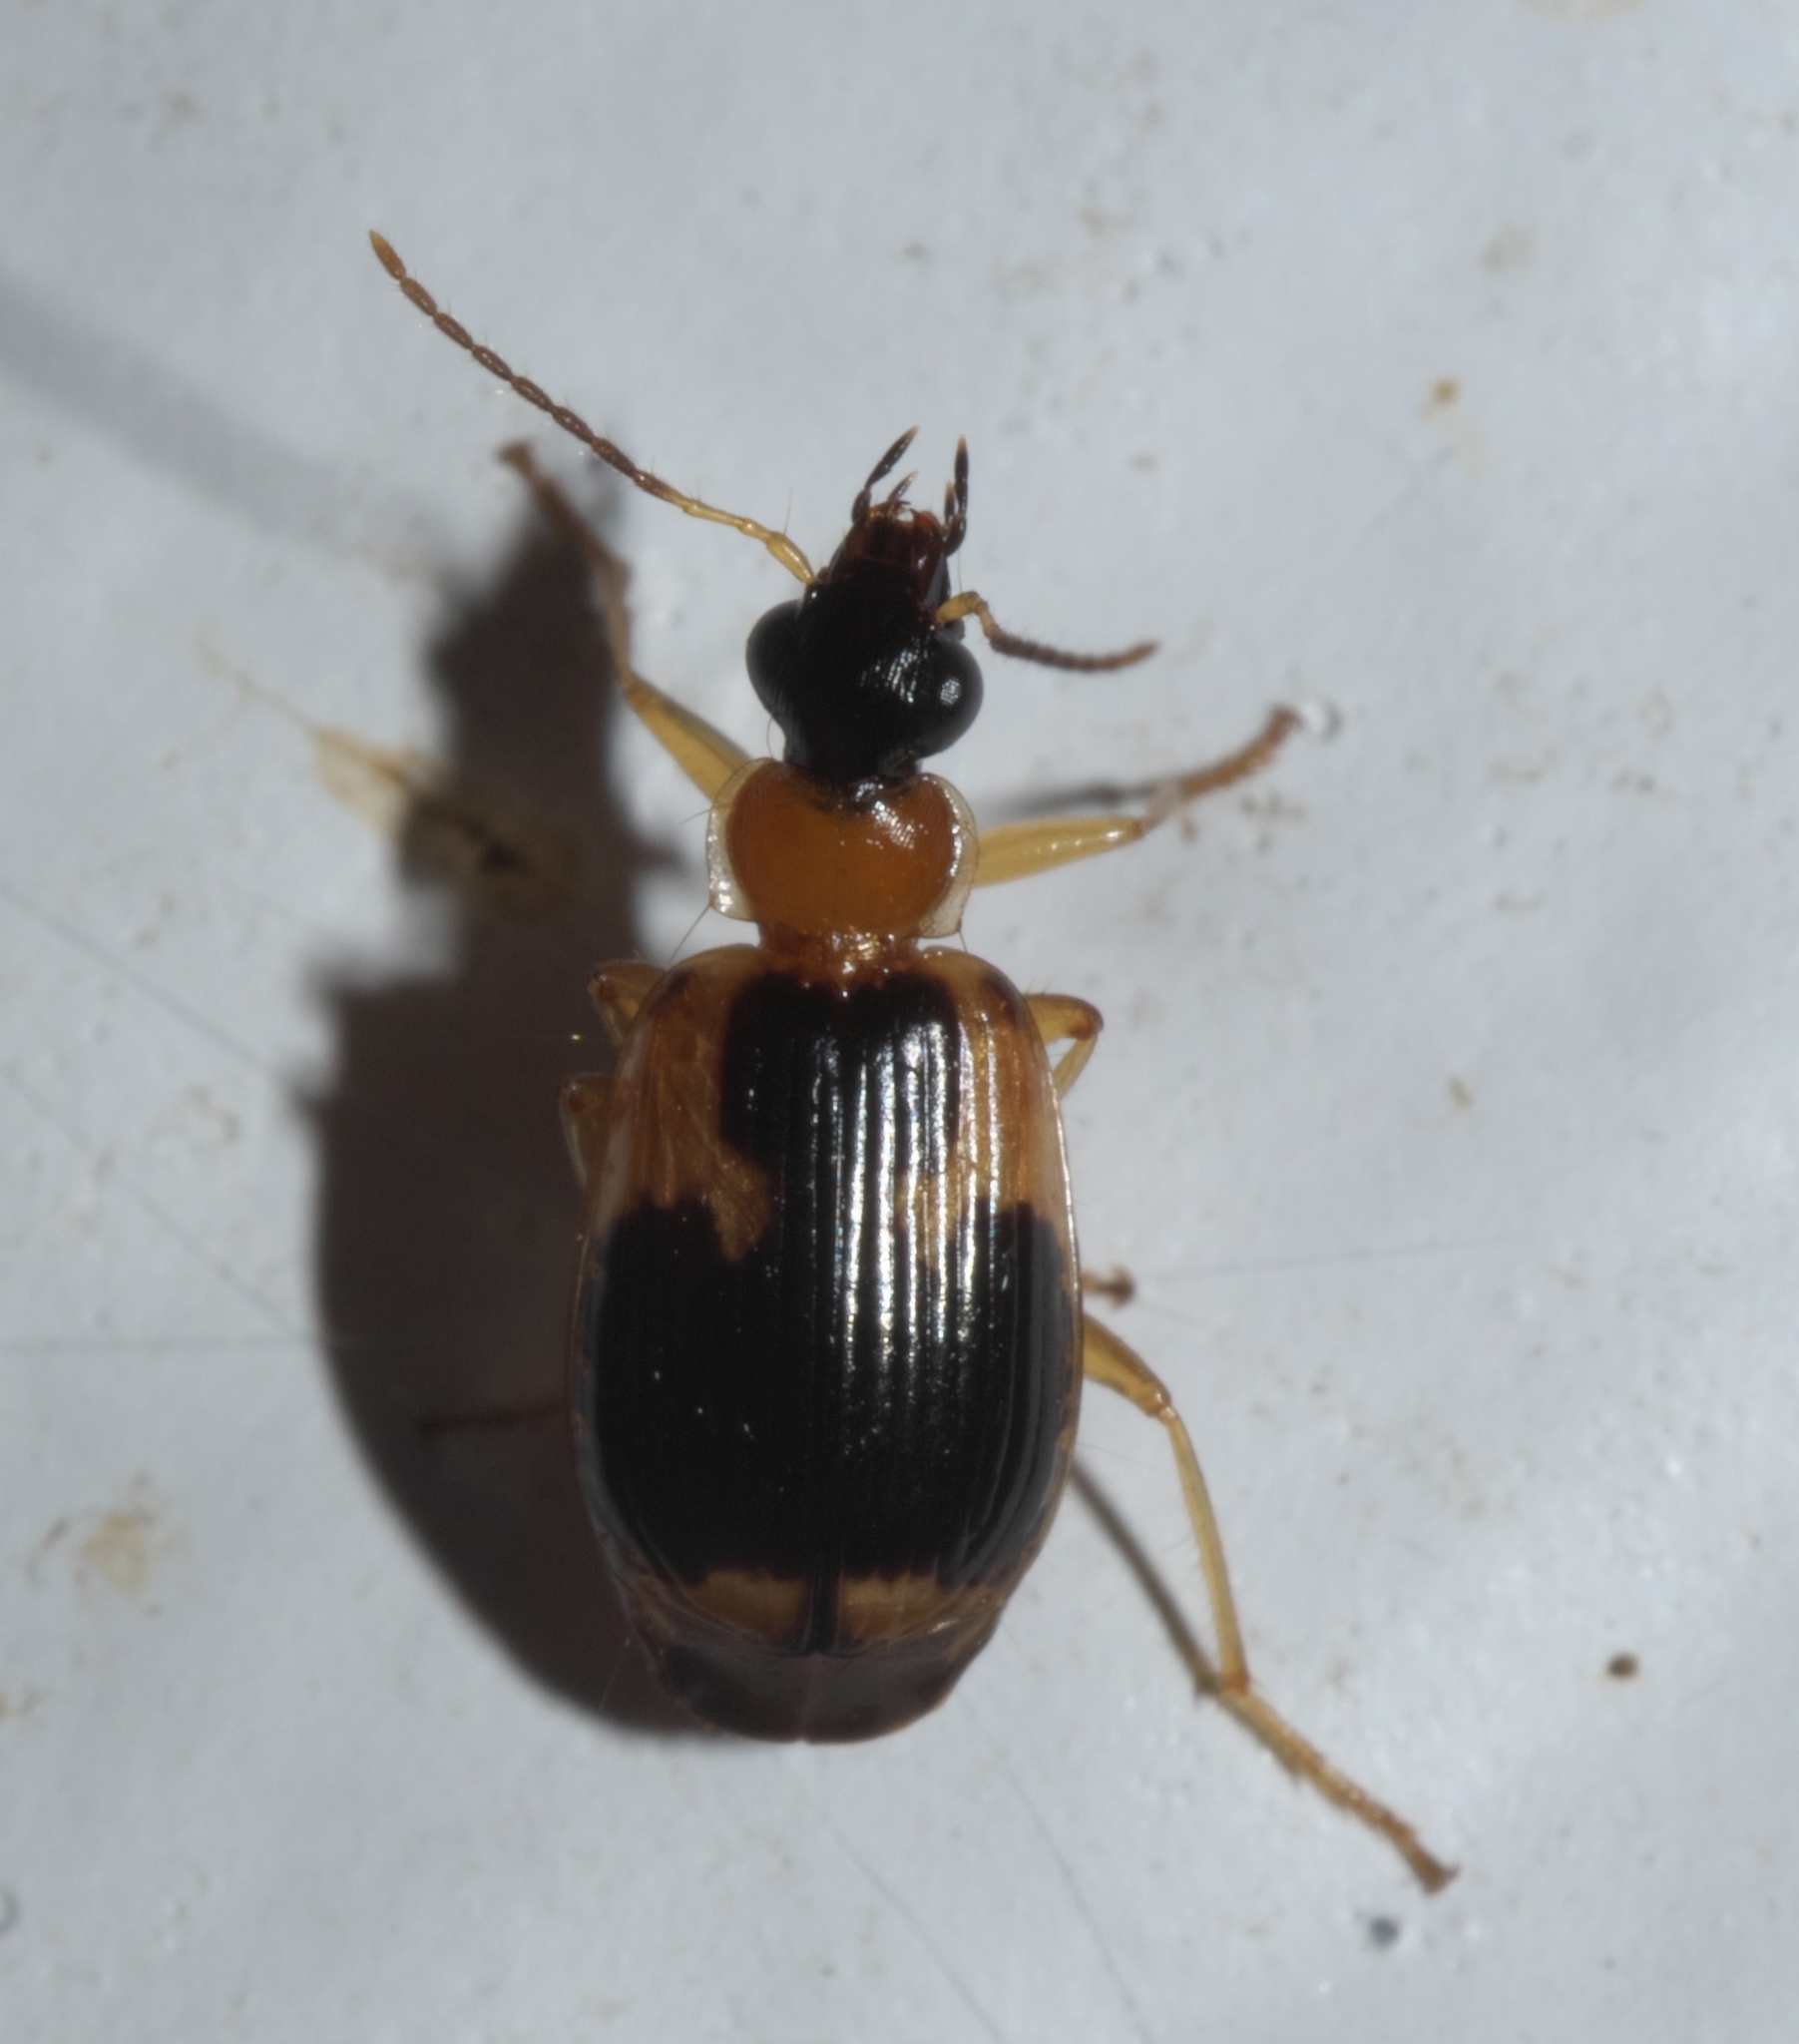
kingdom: Animalia
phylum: Arthropoda
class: Insecta
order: Coleoptera
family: Carabidae
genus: Lebia
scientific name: Lebia analis
